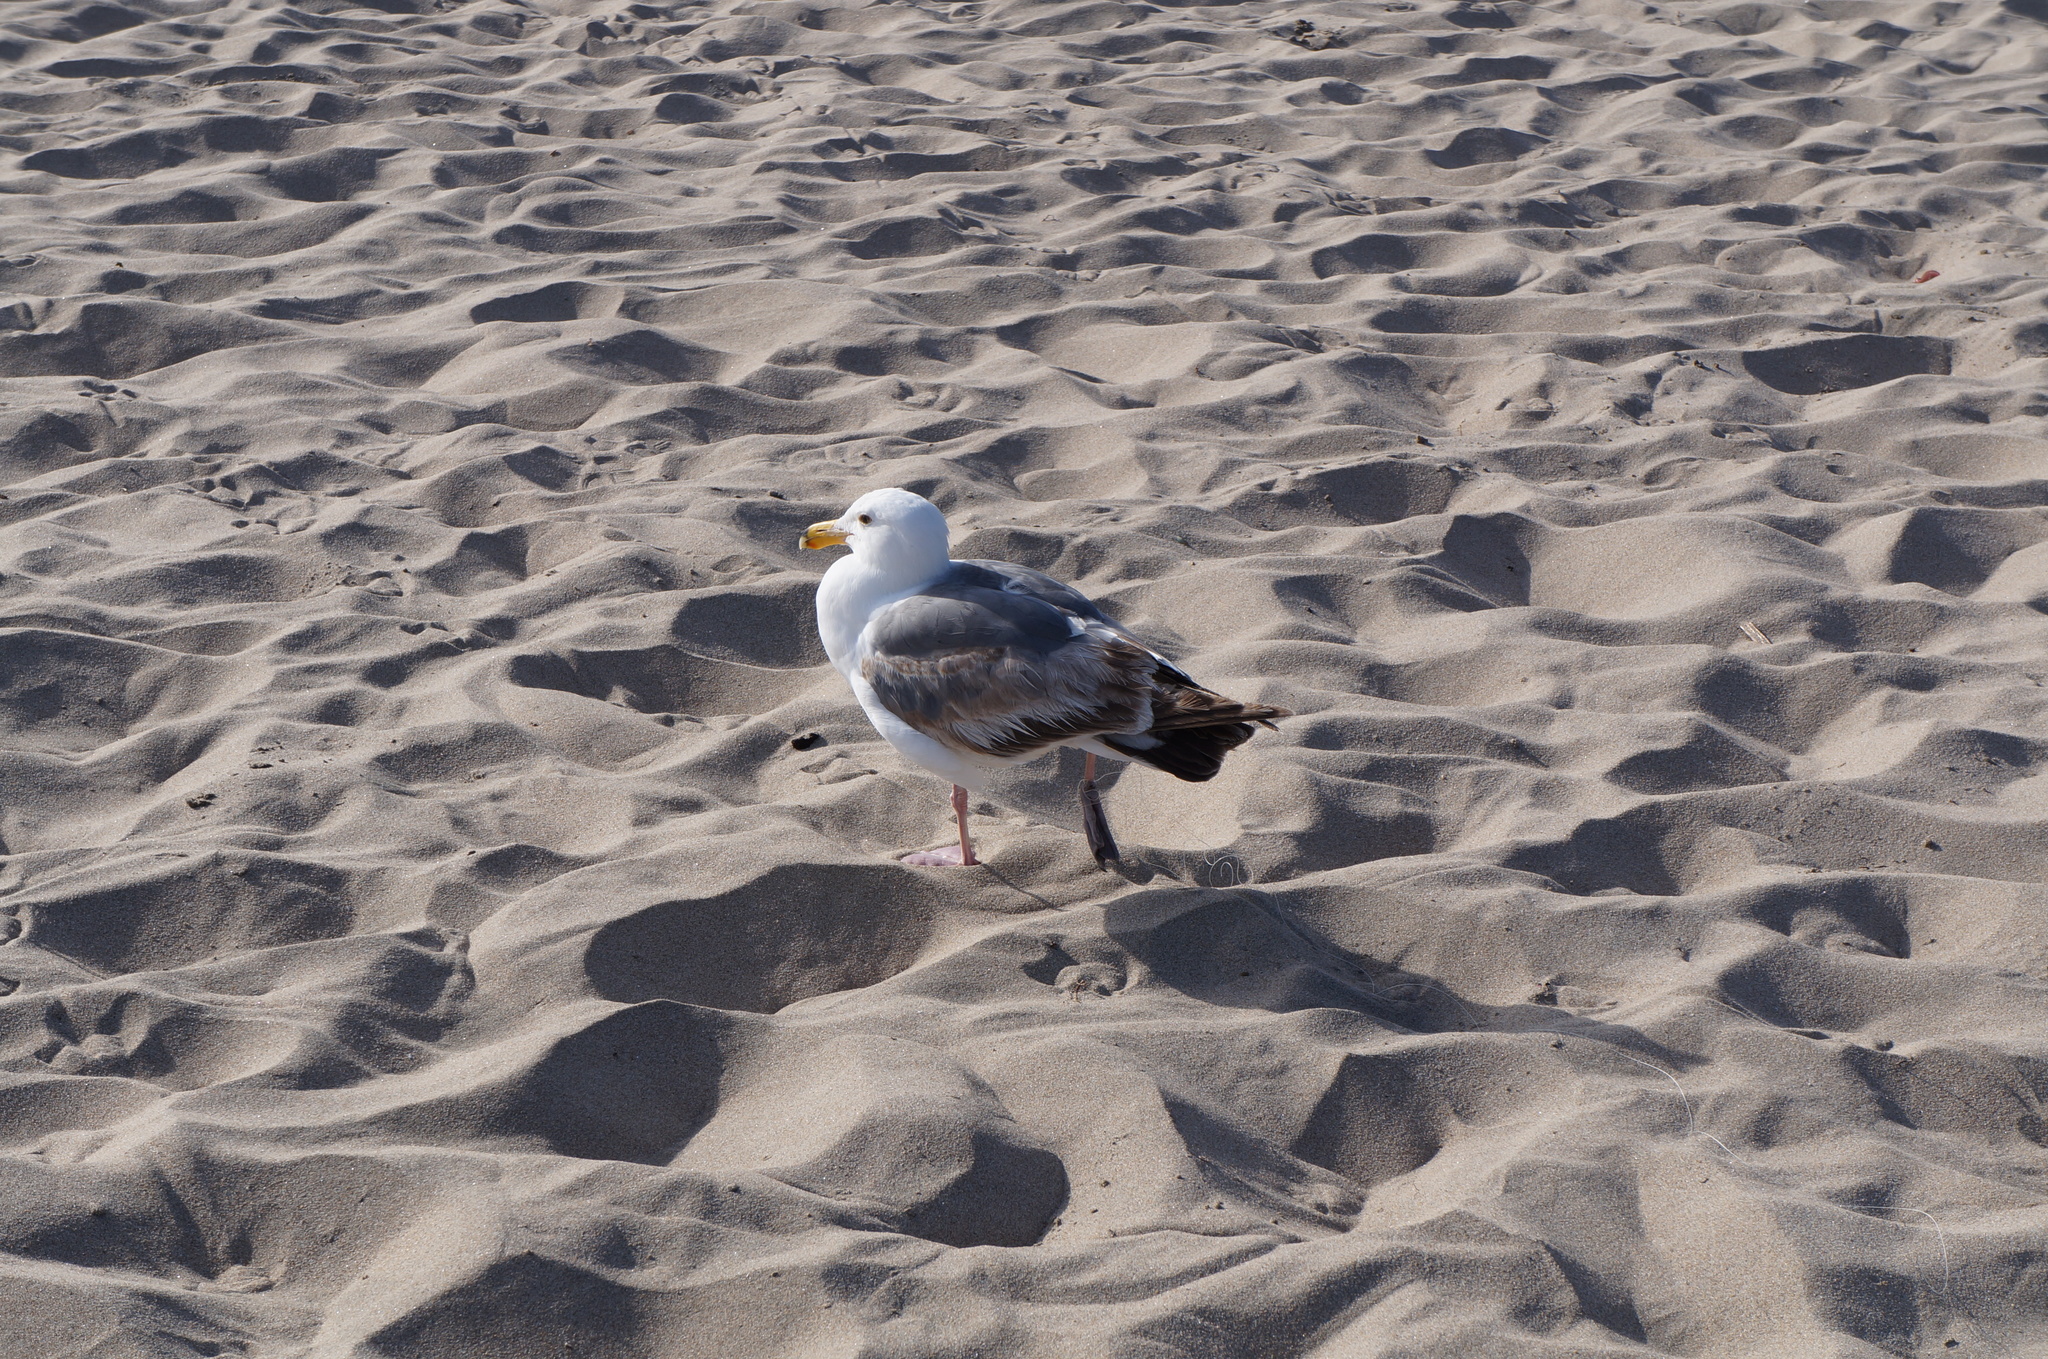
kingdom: Animalia
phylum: Chordata
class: Aves
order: Charadriiformes
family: Laridae
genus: Larus
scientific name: Larus occidentalis
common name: Western gull
